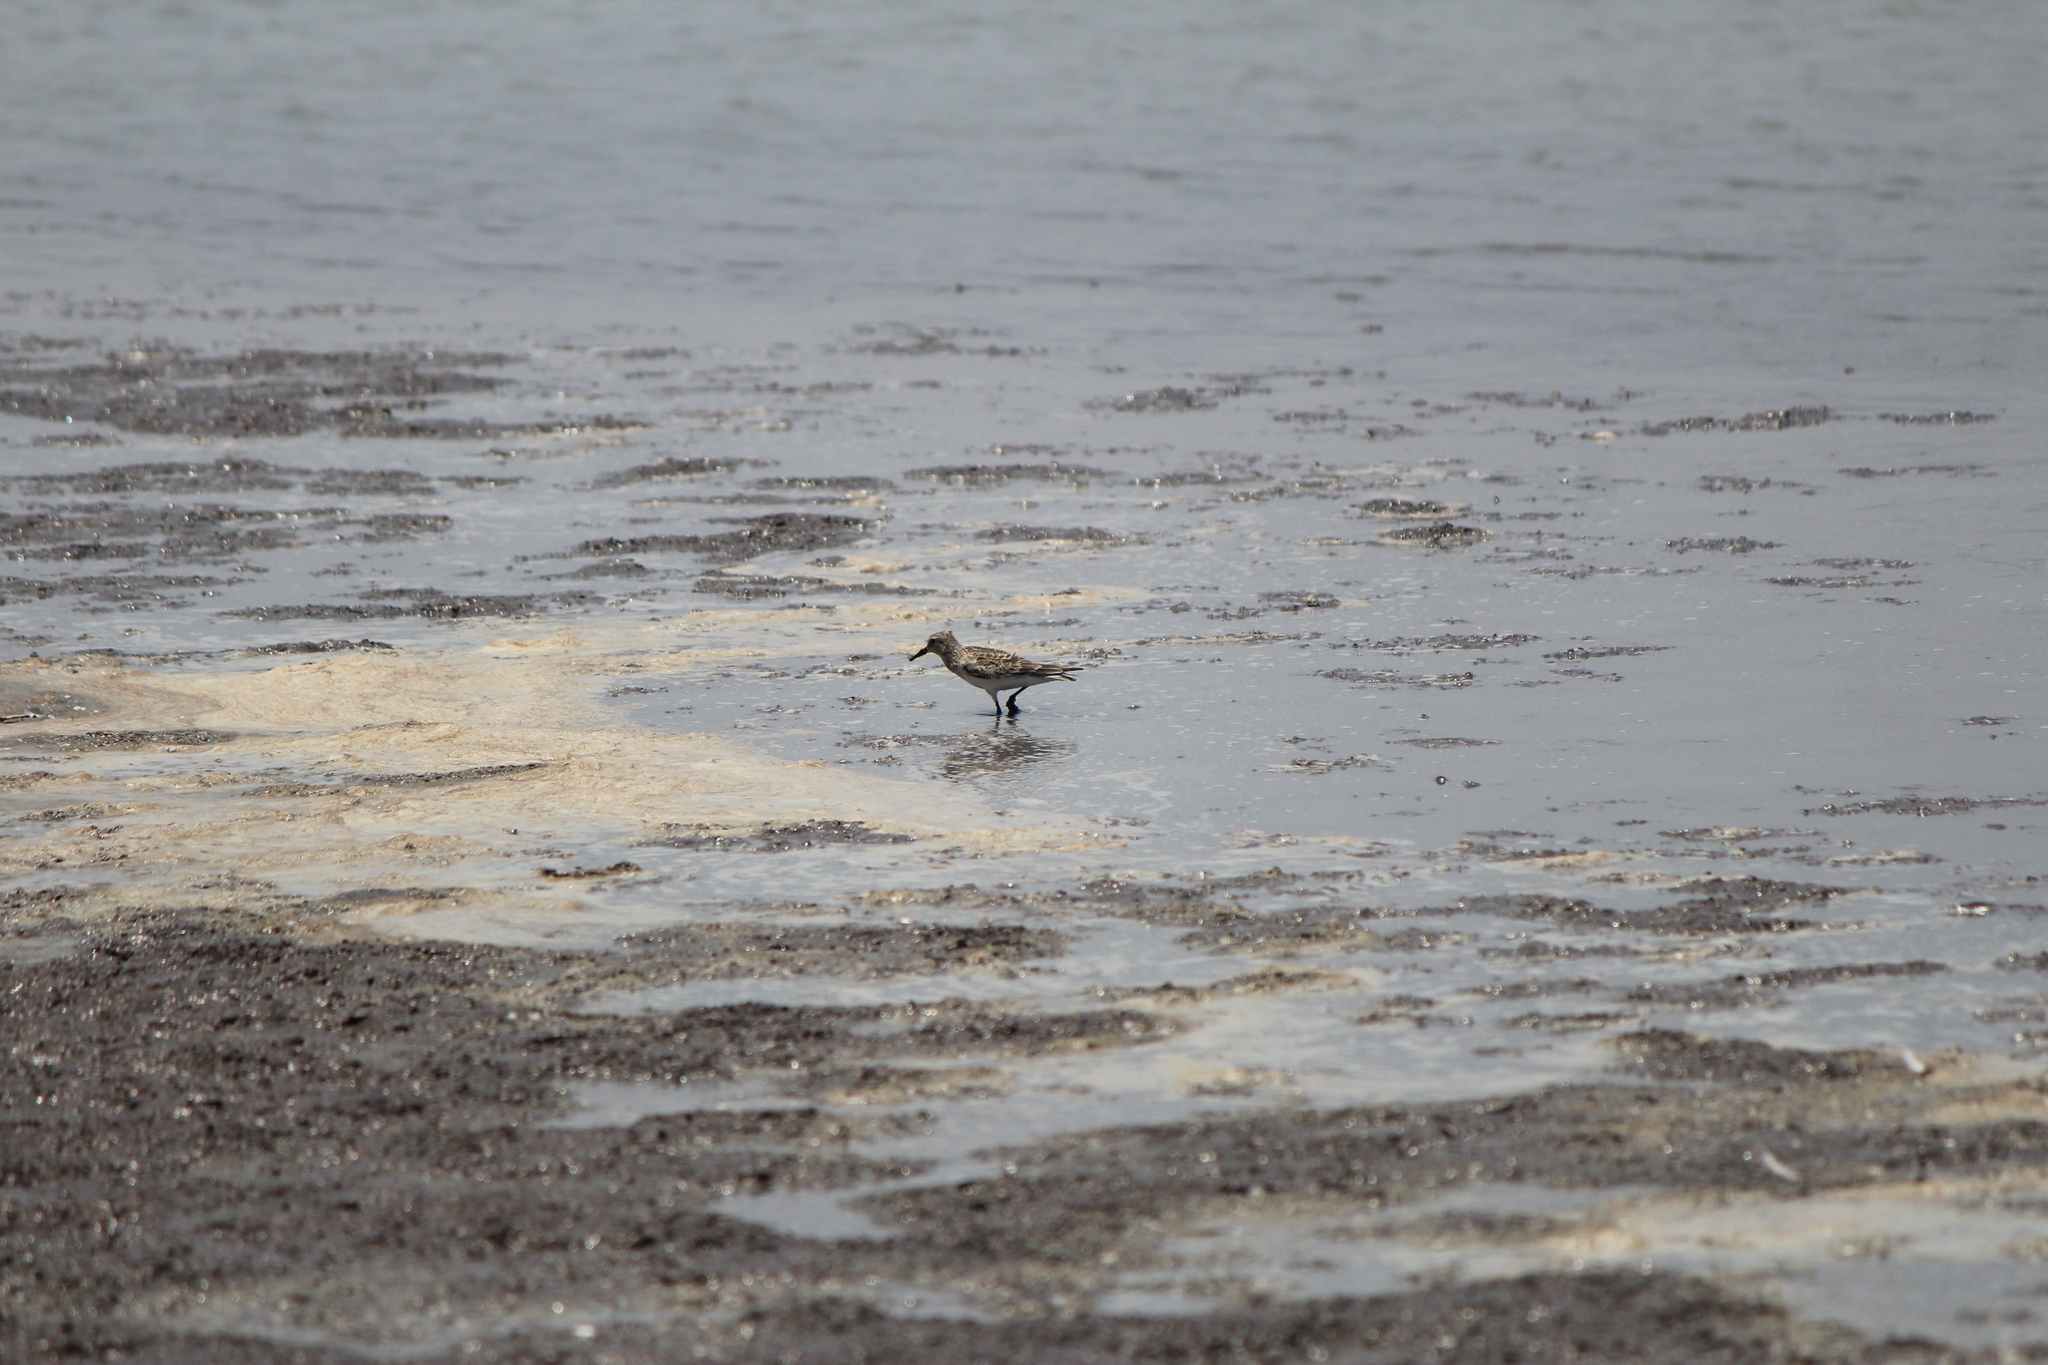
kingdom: Animalia
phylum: Chordata
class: Aves
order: Charadriiformes
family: Scolopacidae
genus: Calidris
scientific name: Calidris bairdii
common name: Baird's sandpiper
